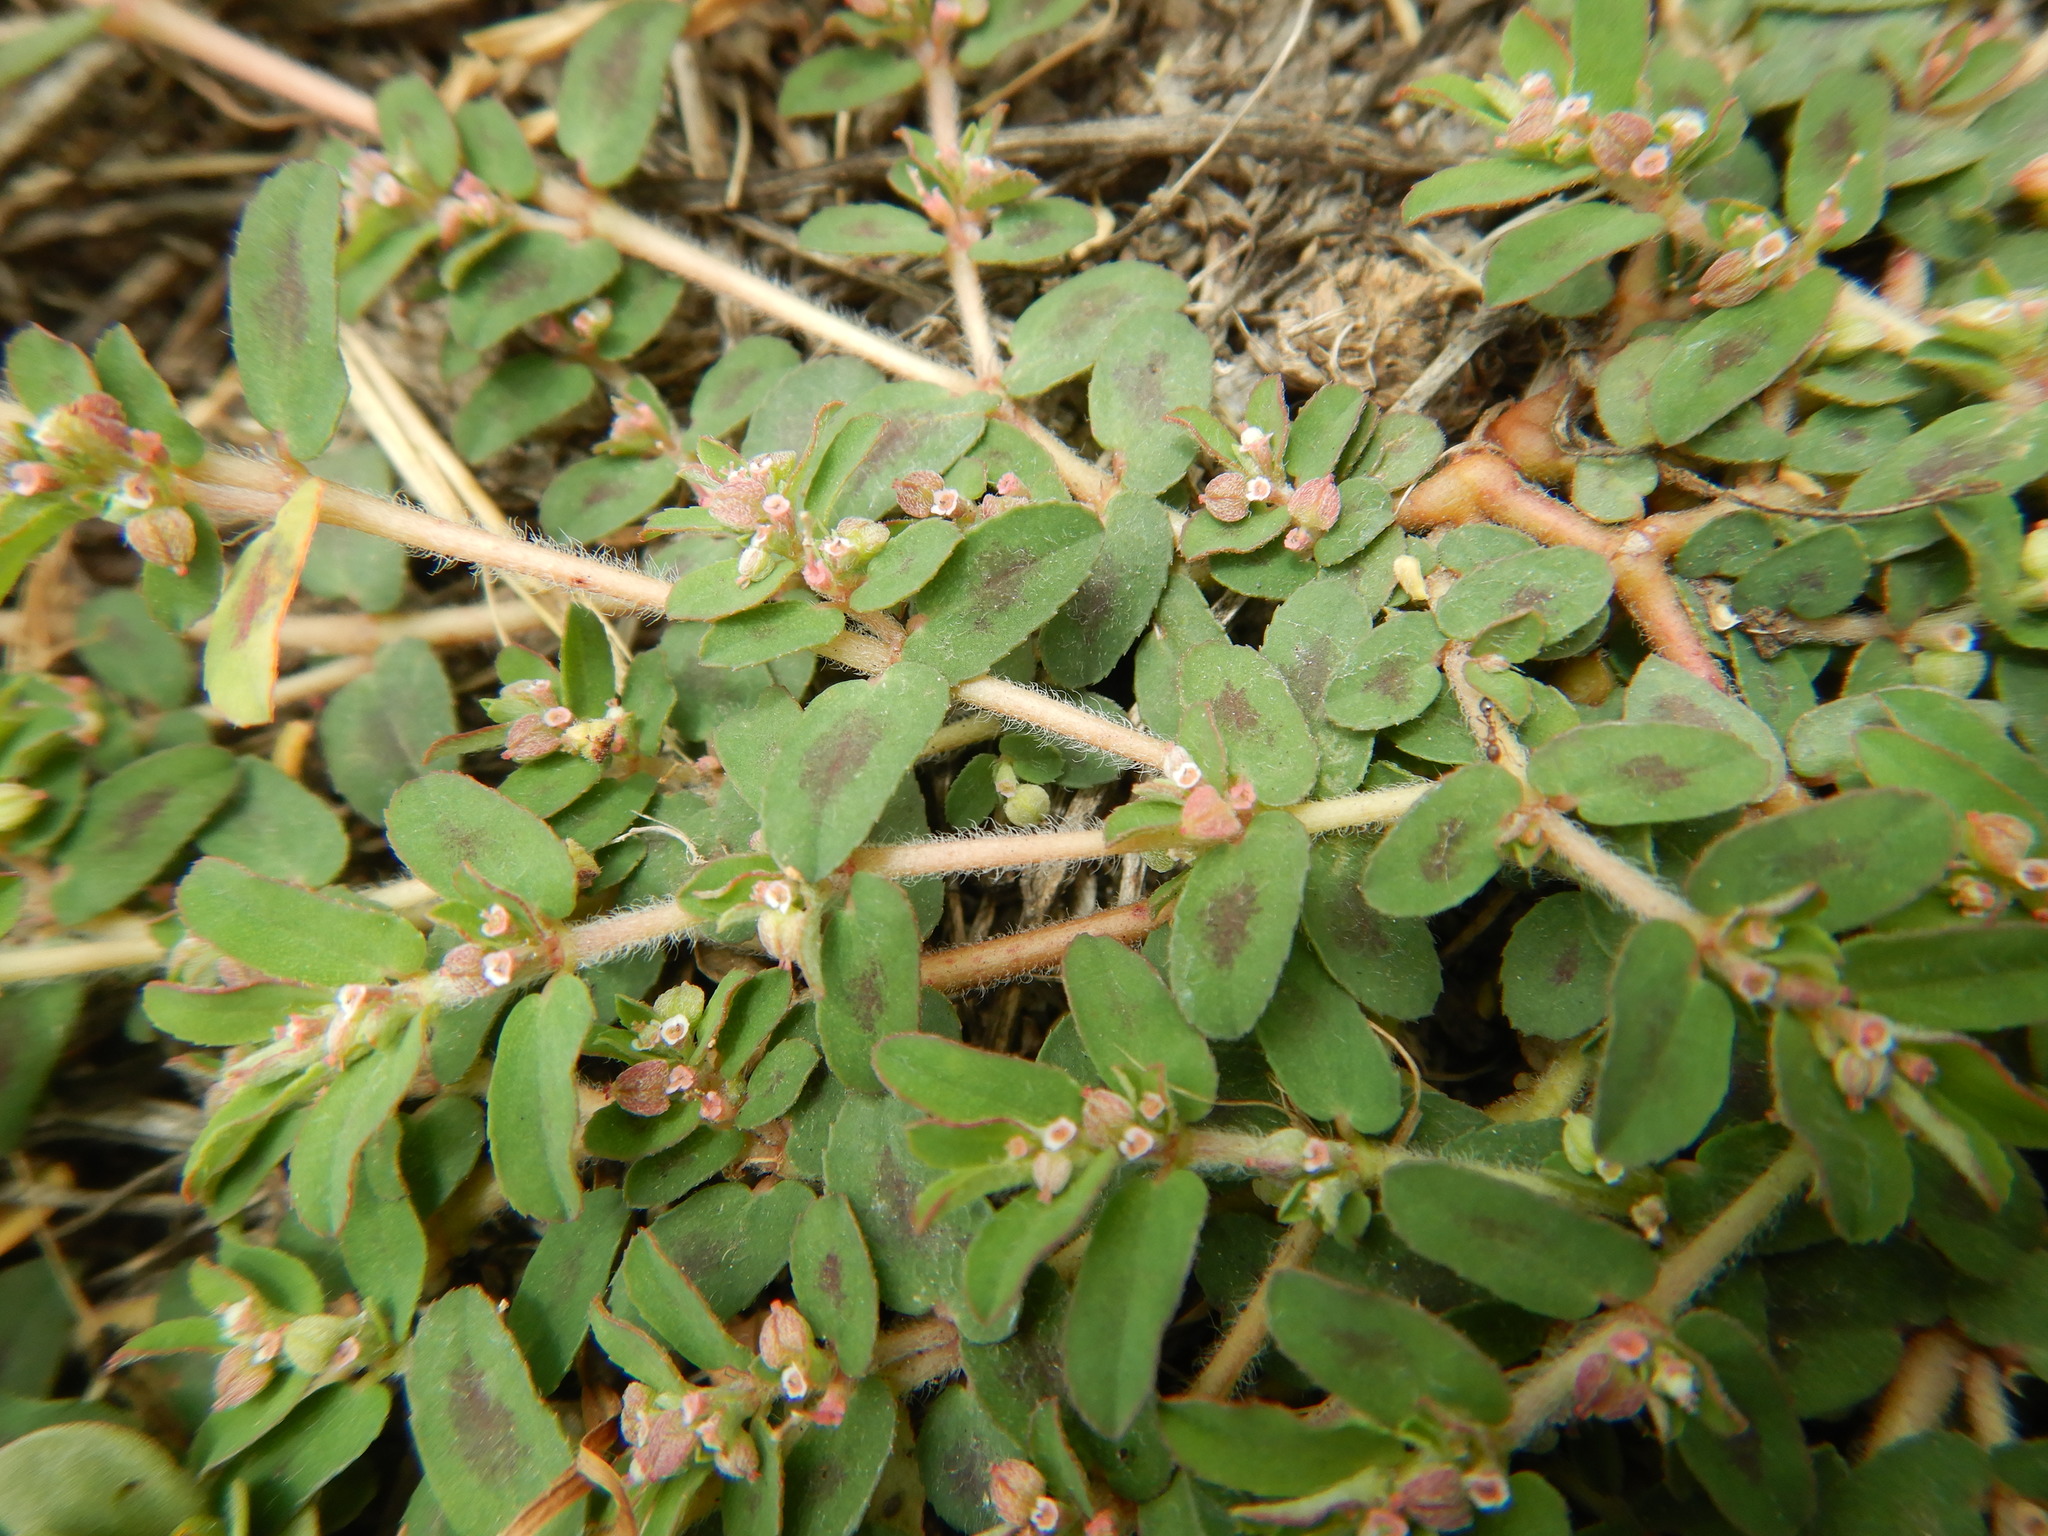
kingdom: Plantae
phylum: Tracheophyta
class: Magnoliopsida
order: Malpighiales
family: Euphorbiaceae
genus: Euphorbia
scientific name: Euphorbia maculata
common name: Spotted spurge
